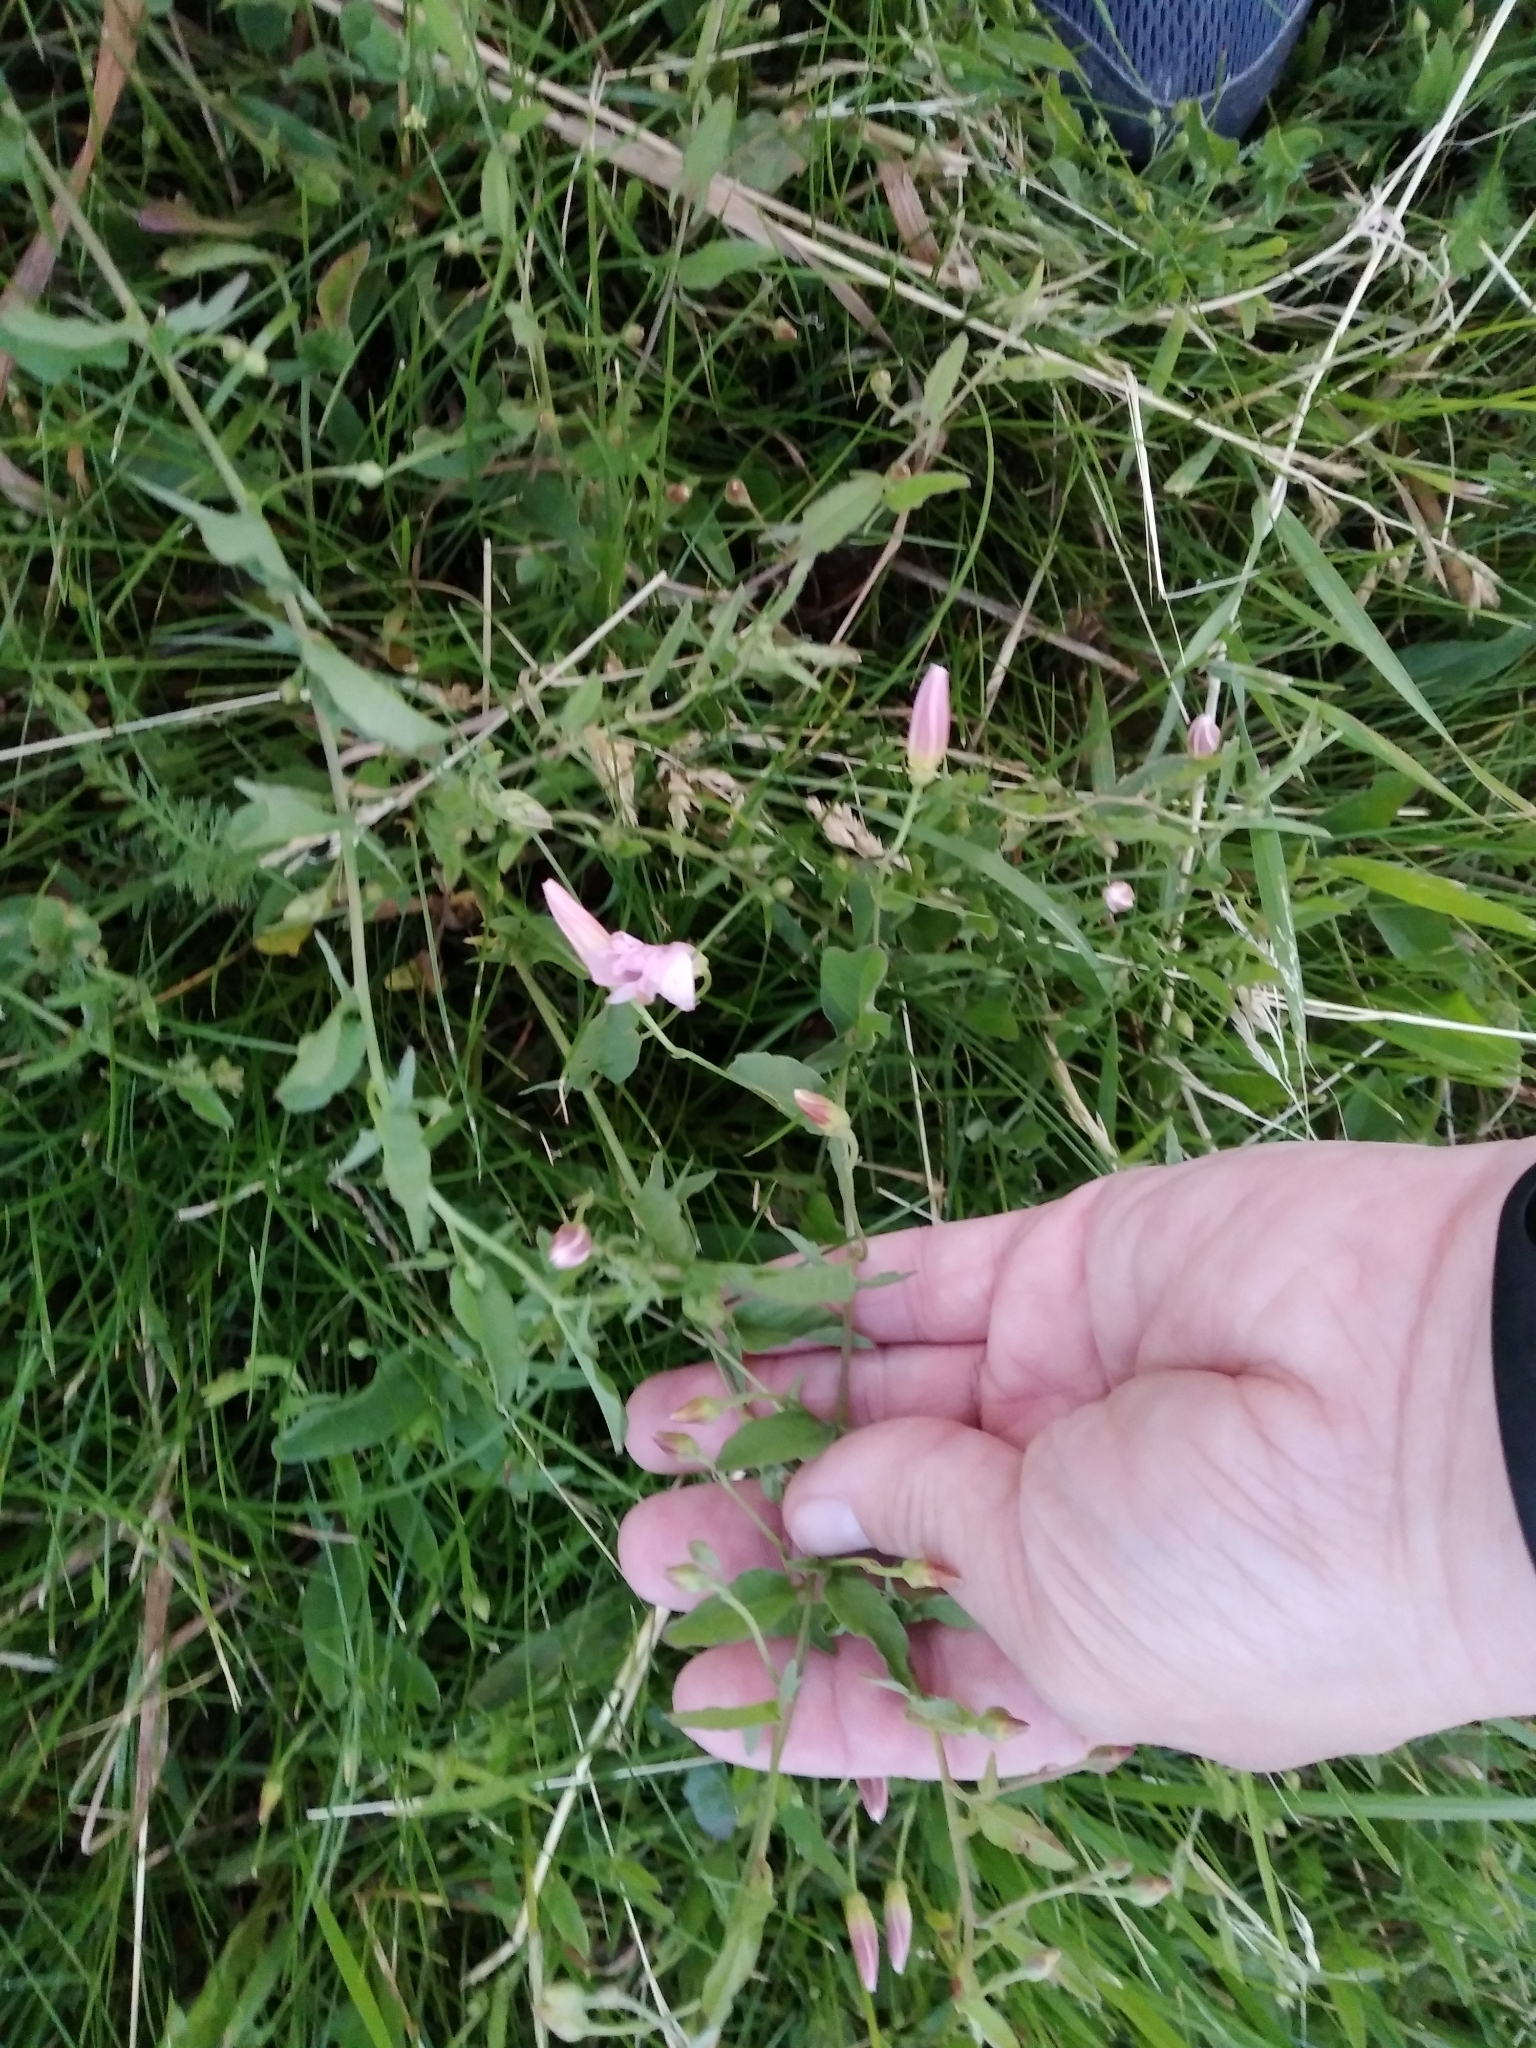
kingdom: Plantae
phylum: Tracheophyta
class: Magnoliopsida
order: Solanales
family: Convolvulaceae
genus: Convolvulus
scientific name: Convolvulus arvensis
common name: Field bindweed
